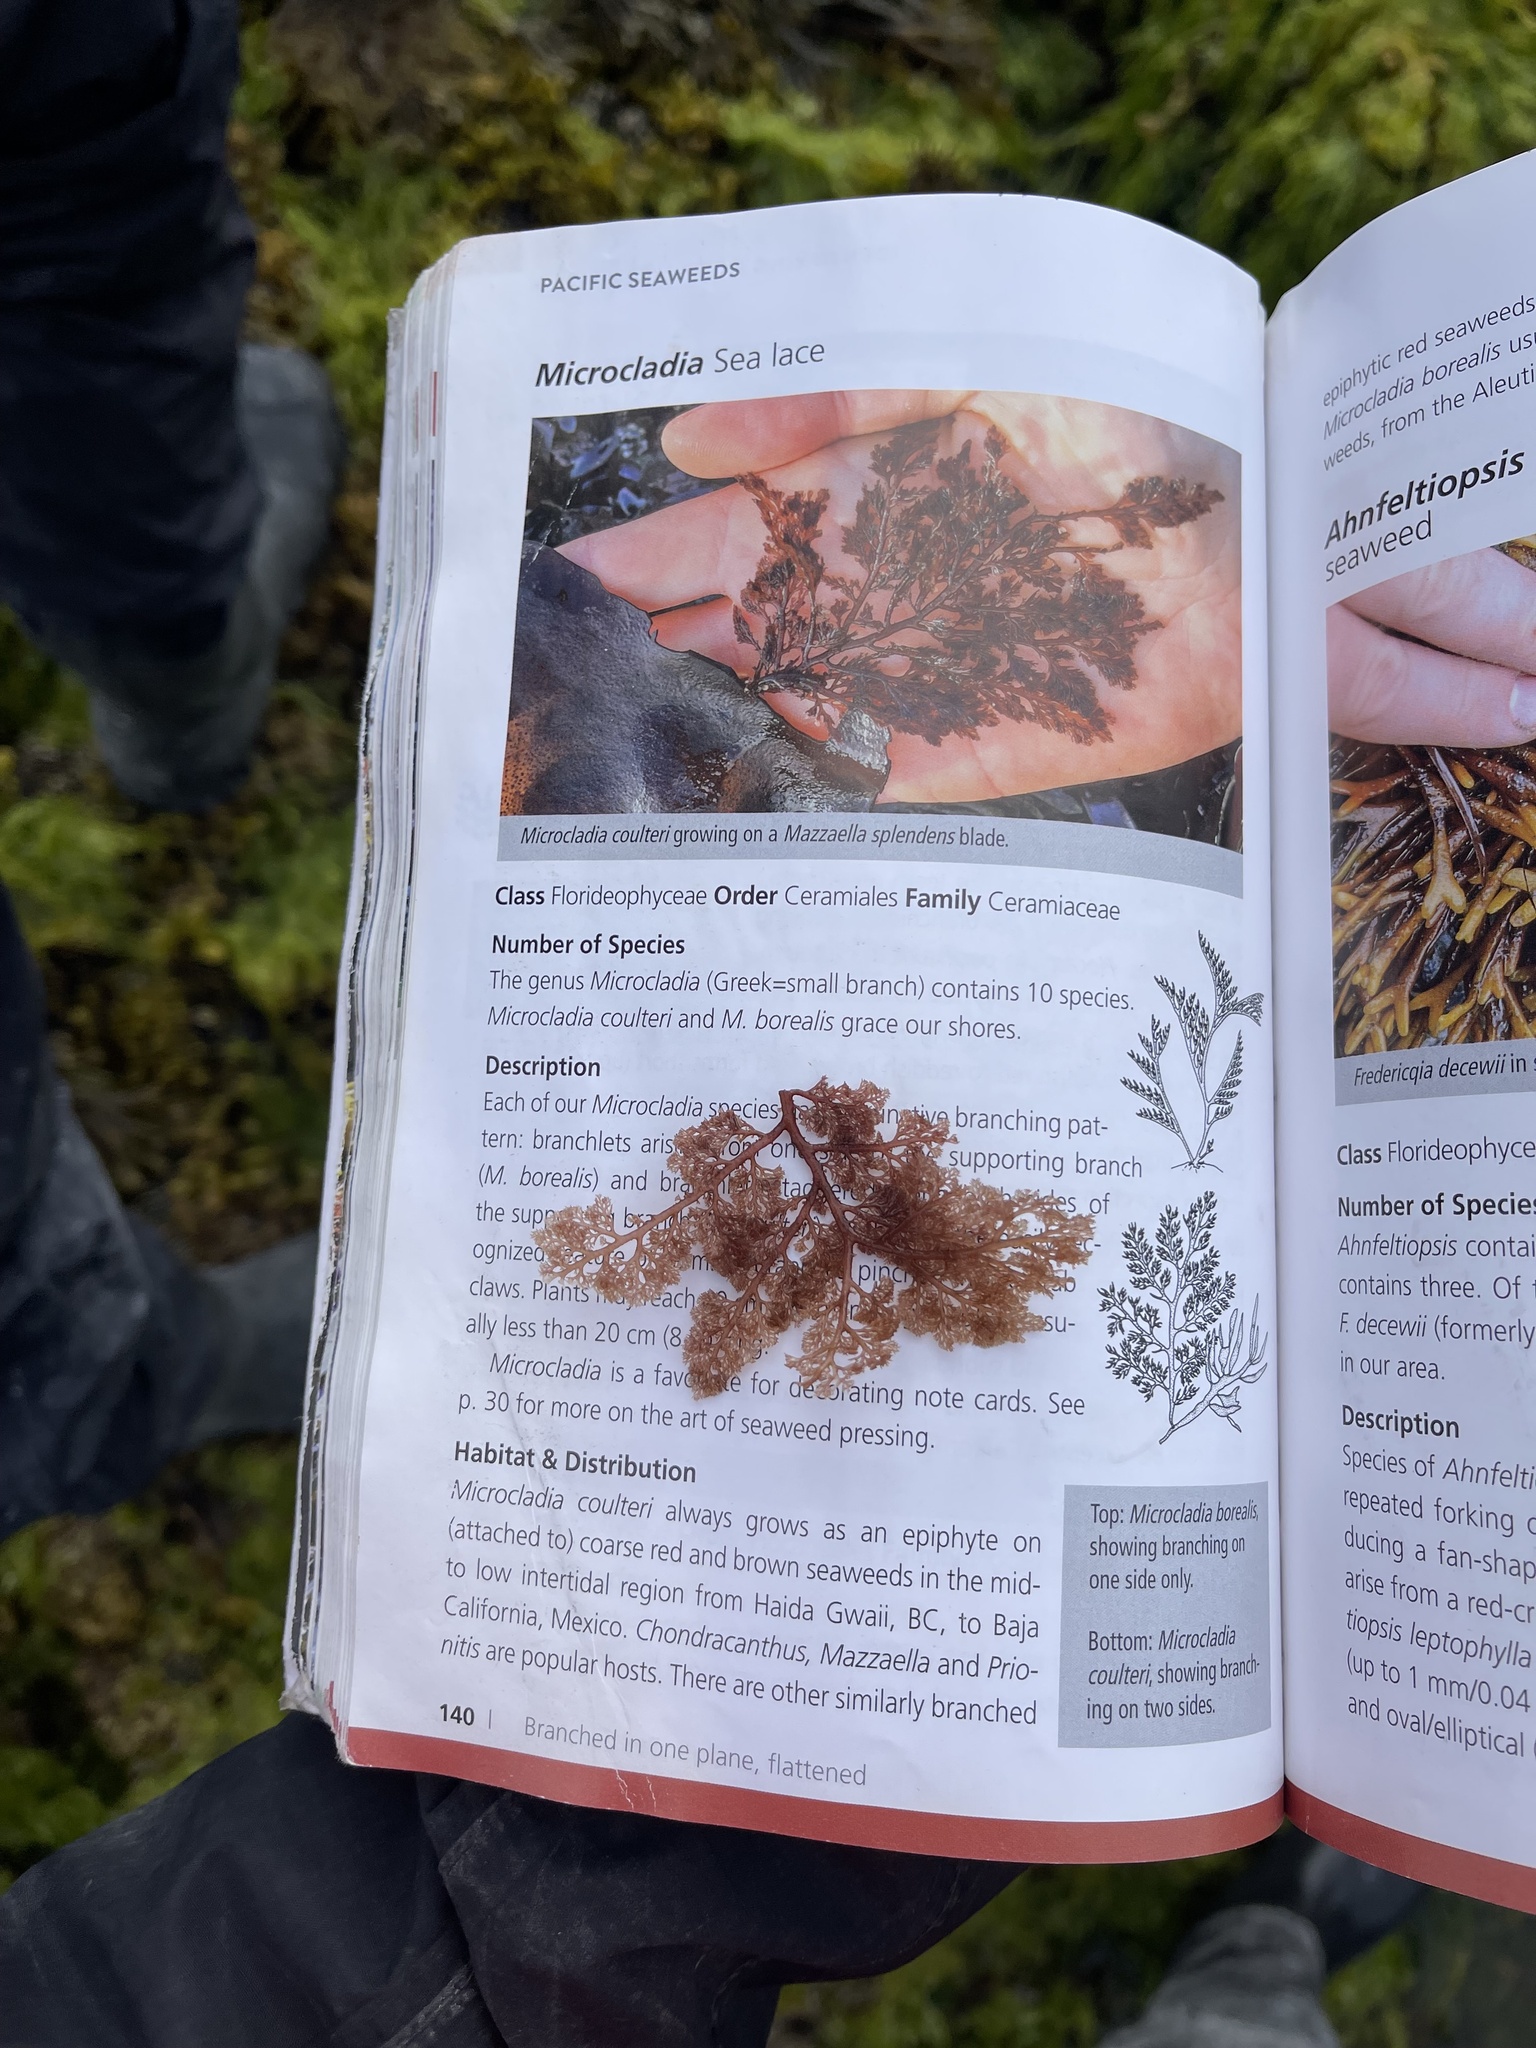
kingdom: Plantae
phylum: Rhodophyta
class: Florideophyceae
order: Ceramiales
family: Ceramiaceae
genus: Microcladia
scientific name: Microcladia coulteri
